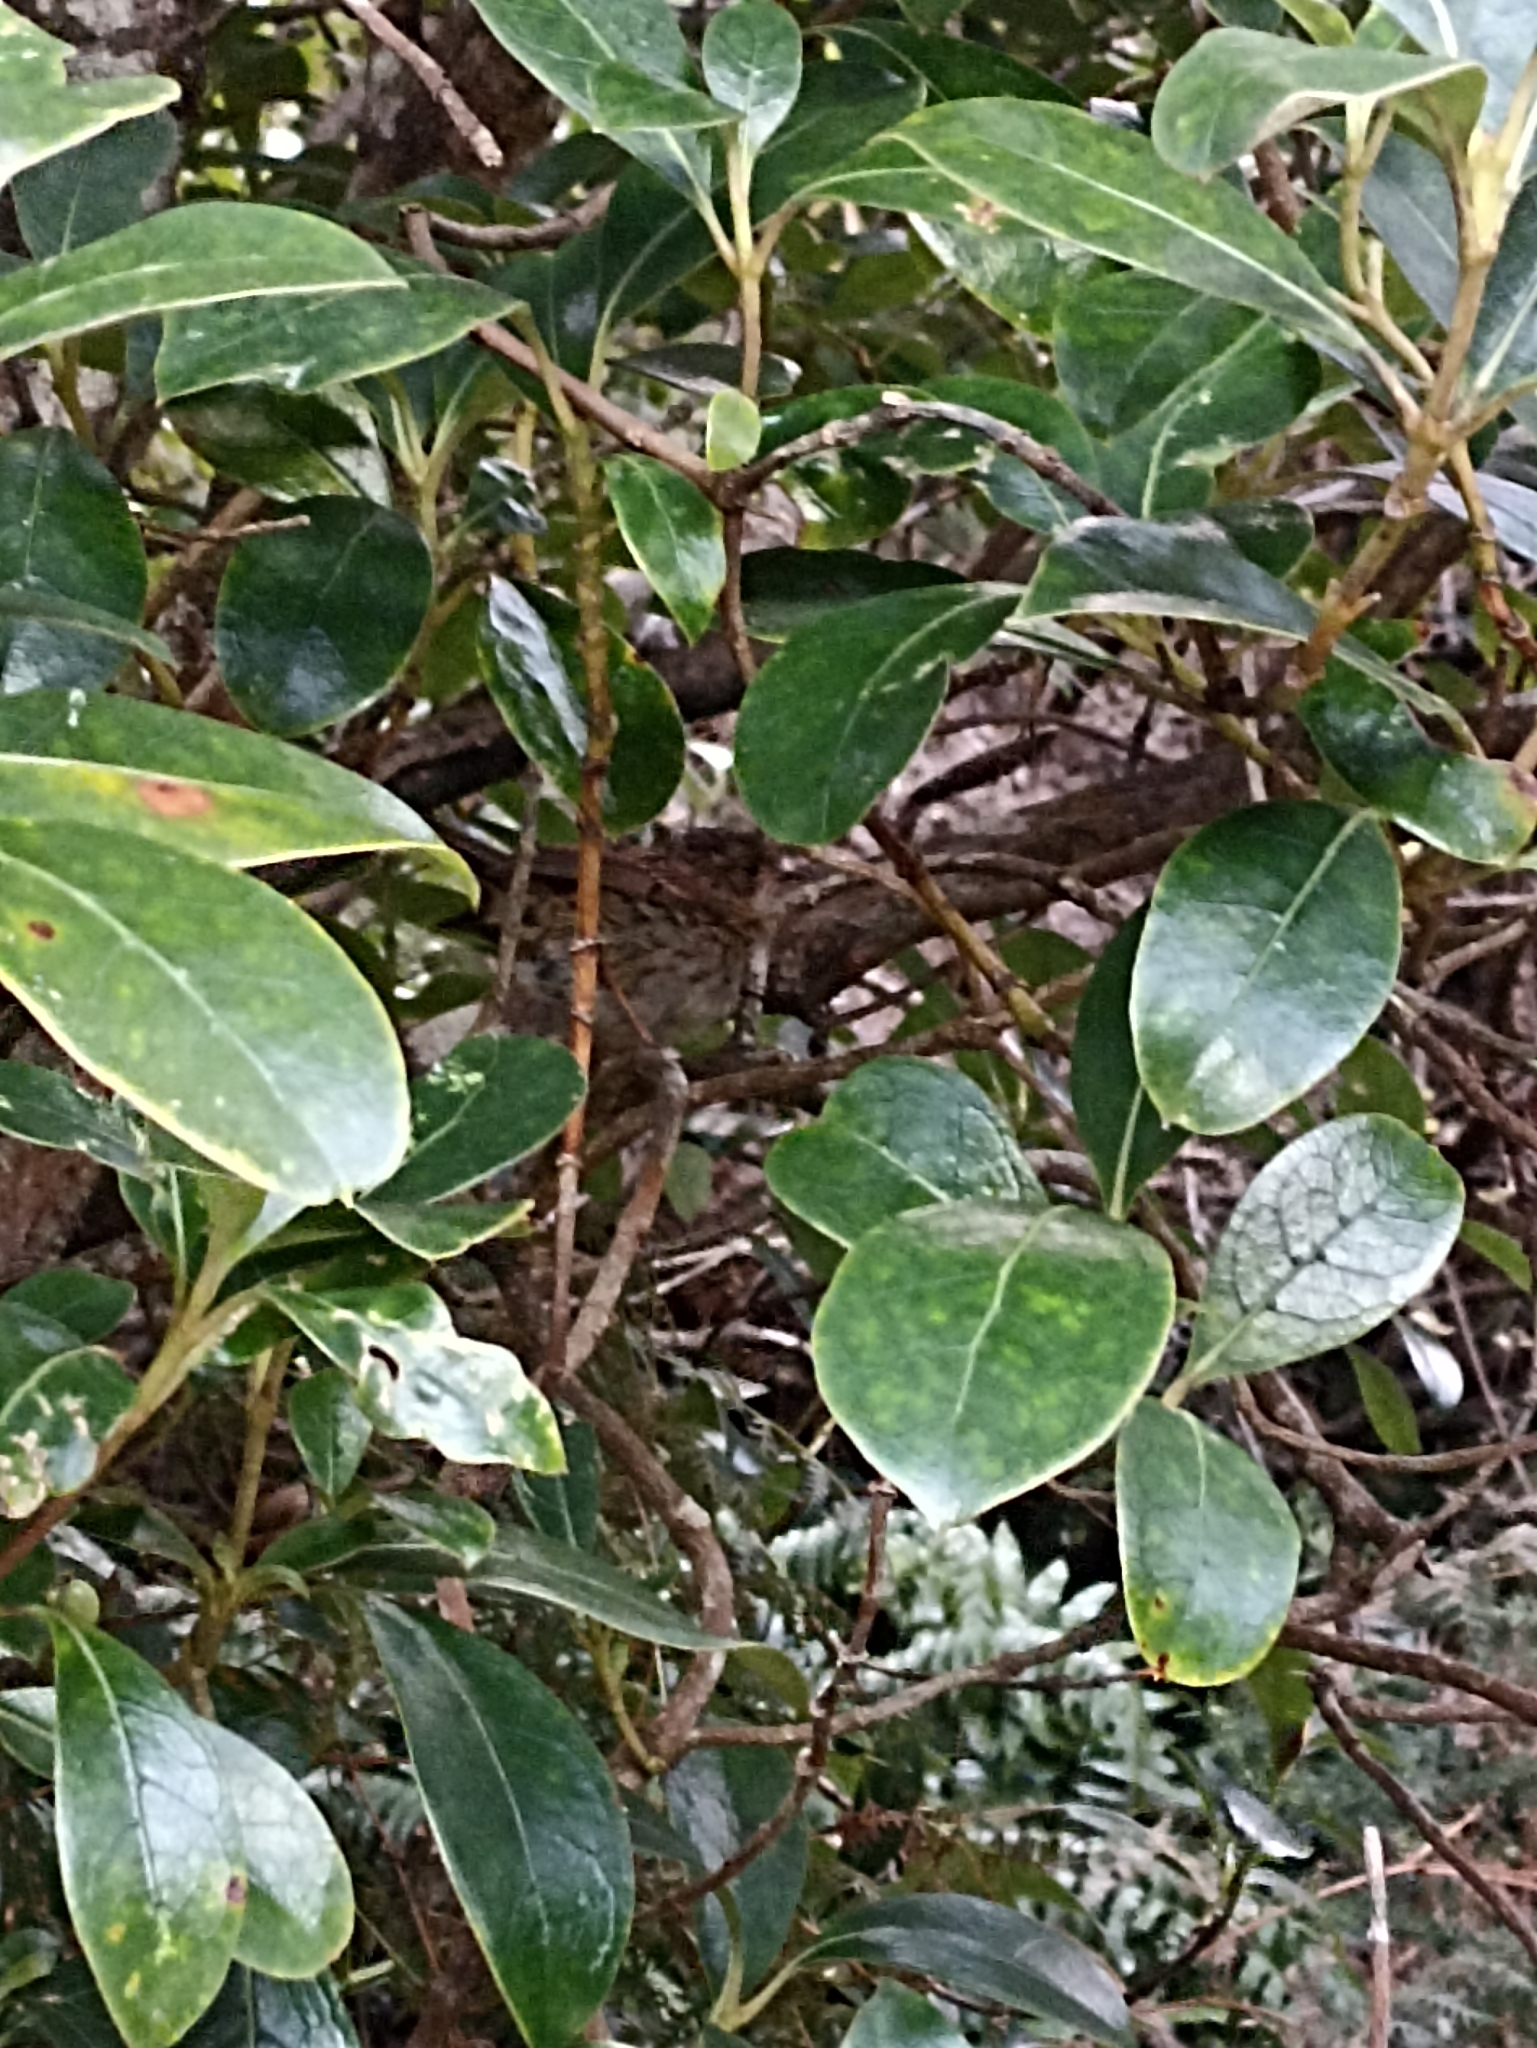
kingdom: Animalia
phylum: Chordata
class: Aves
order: Passeriformes
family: Prunellidae
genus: Prunella
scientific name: Prunella modularis
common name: Dunnock
